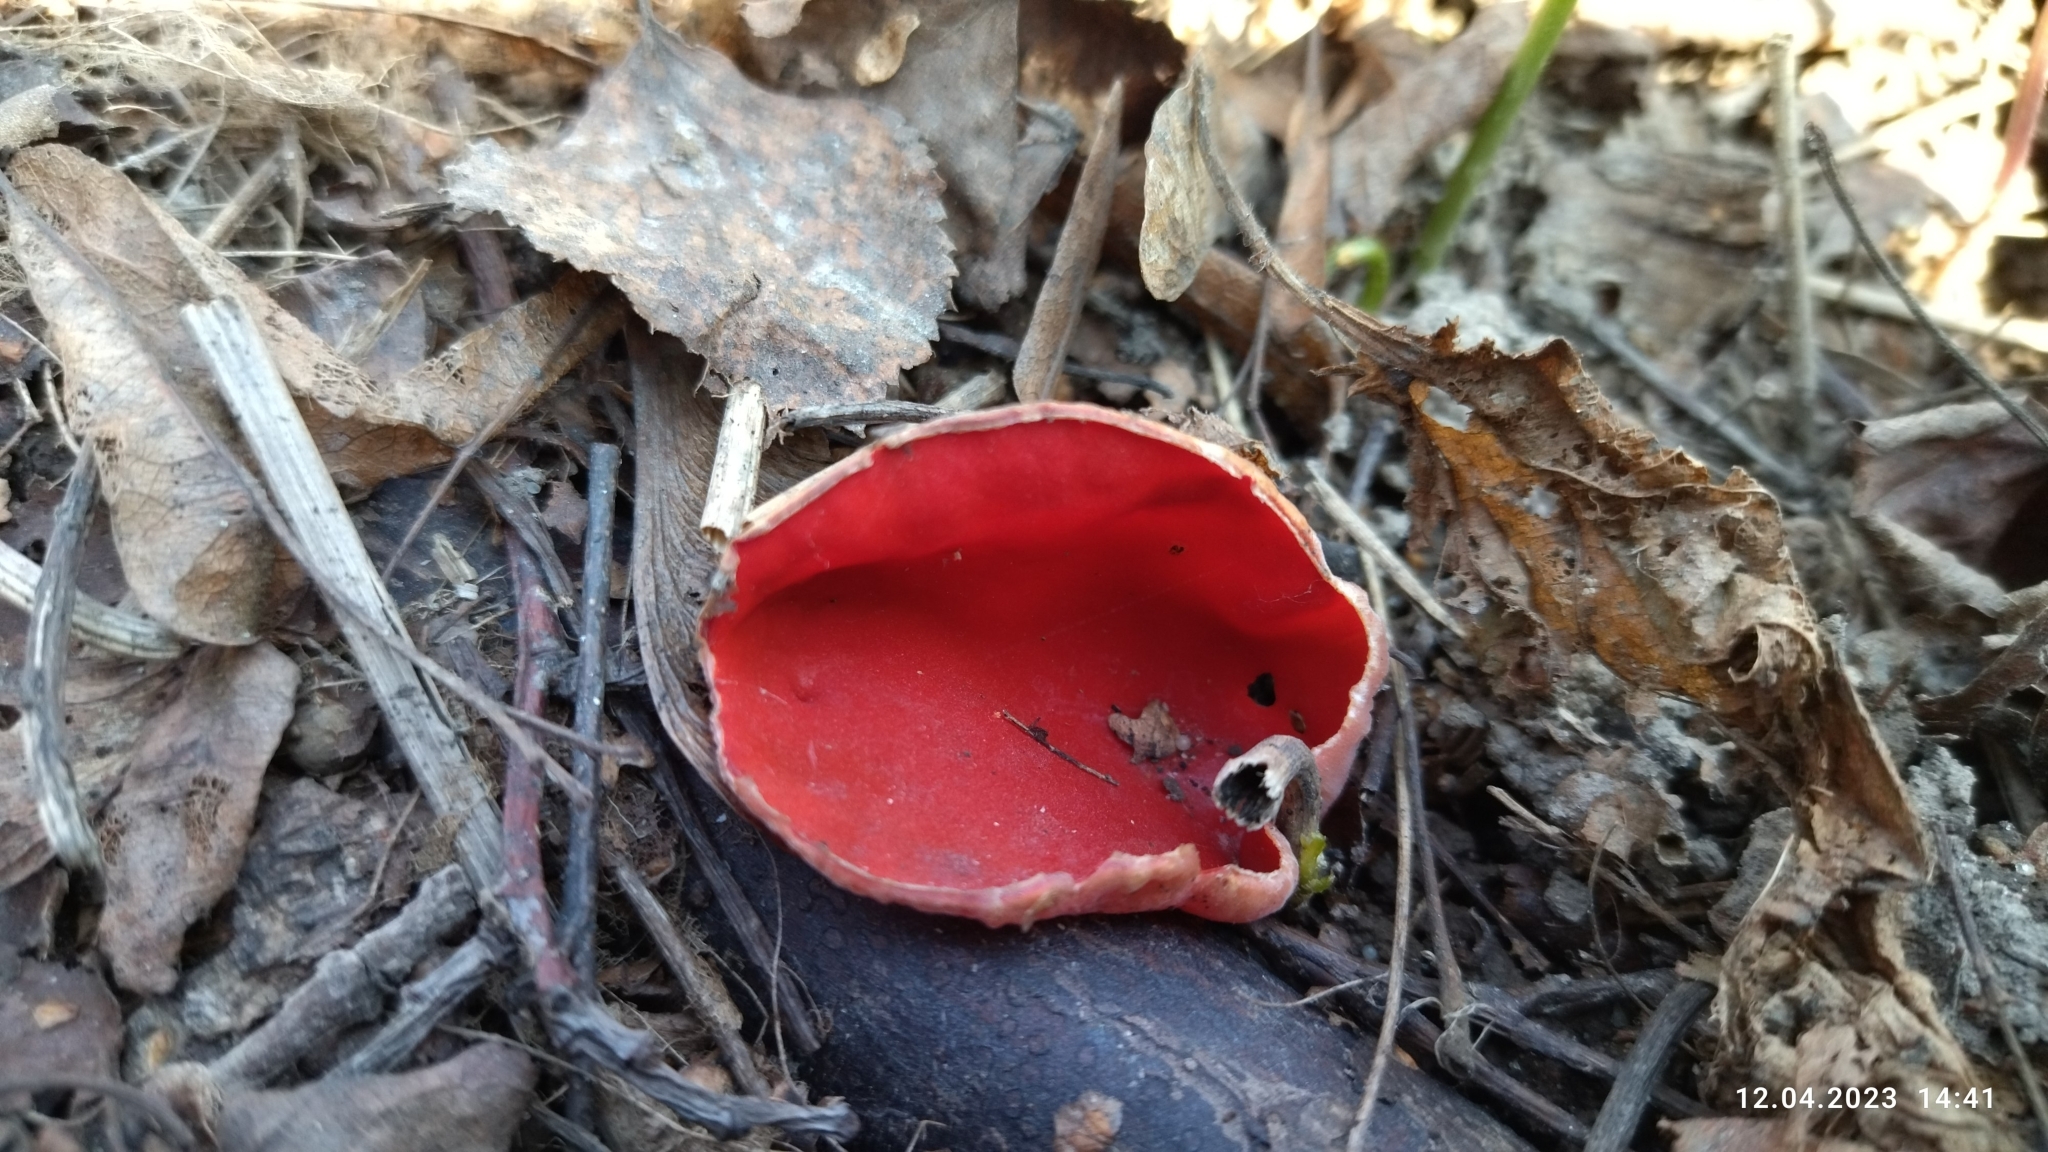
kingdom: Fungi
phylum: Ascomycota
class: Pezizomycetes
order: Pezizales
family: Sarcoscyphaceae
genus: Sarcoscypha
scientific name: Sarcoscypha austriaca
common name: Scarlet elfcup
